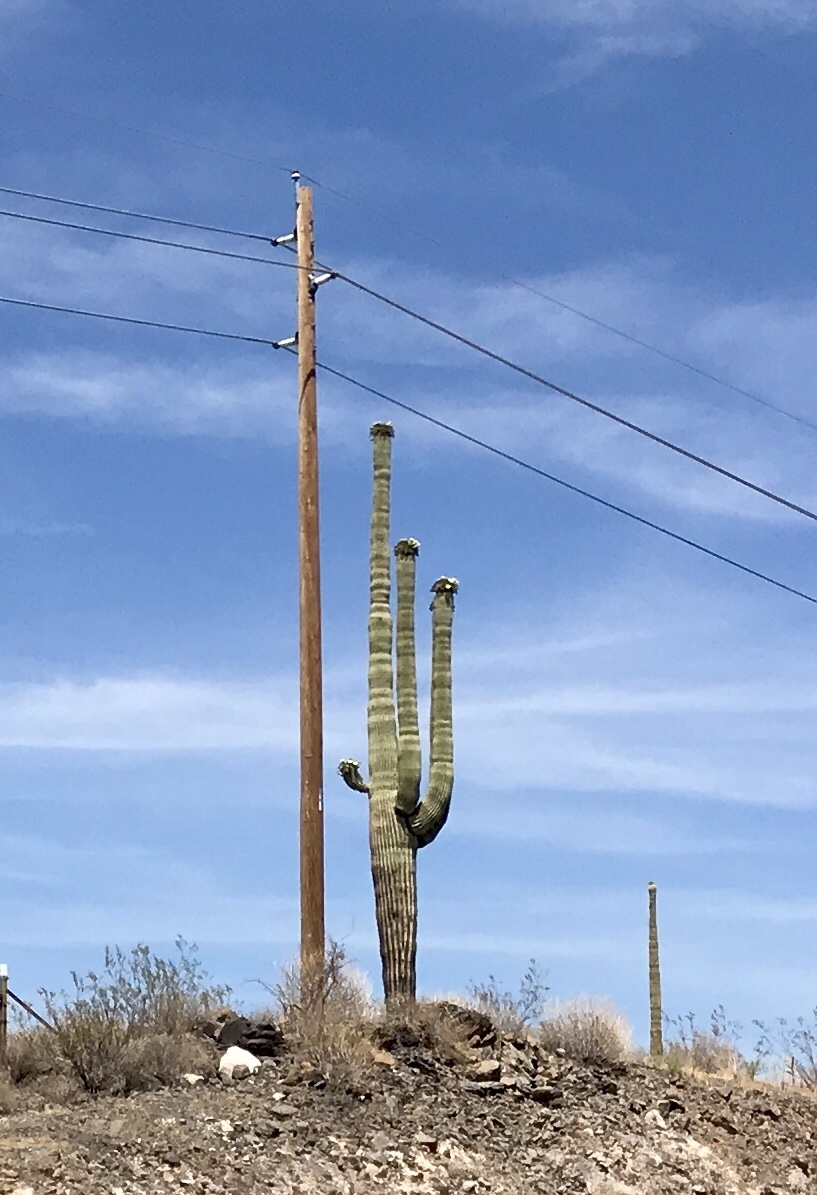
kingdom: Plantae
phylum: Tracheophyta
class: Magnoliopsida
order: Caryophyllales
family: Cactaceae
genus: Carnegiea
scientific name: Carnegiea gigantea
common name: Saguaro
